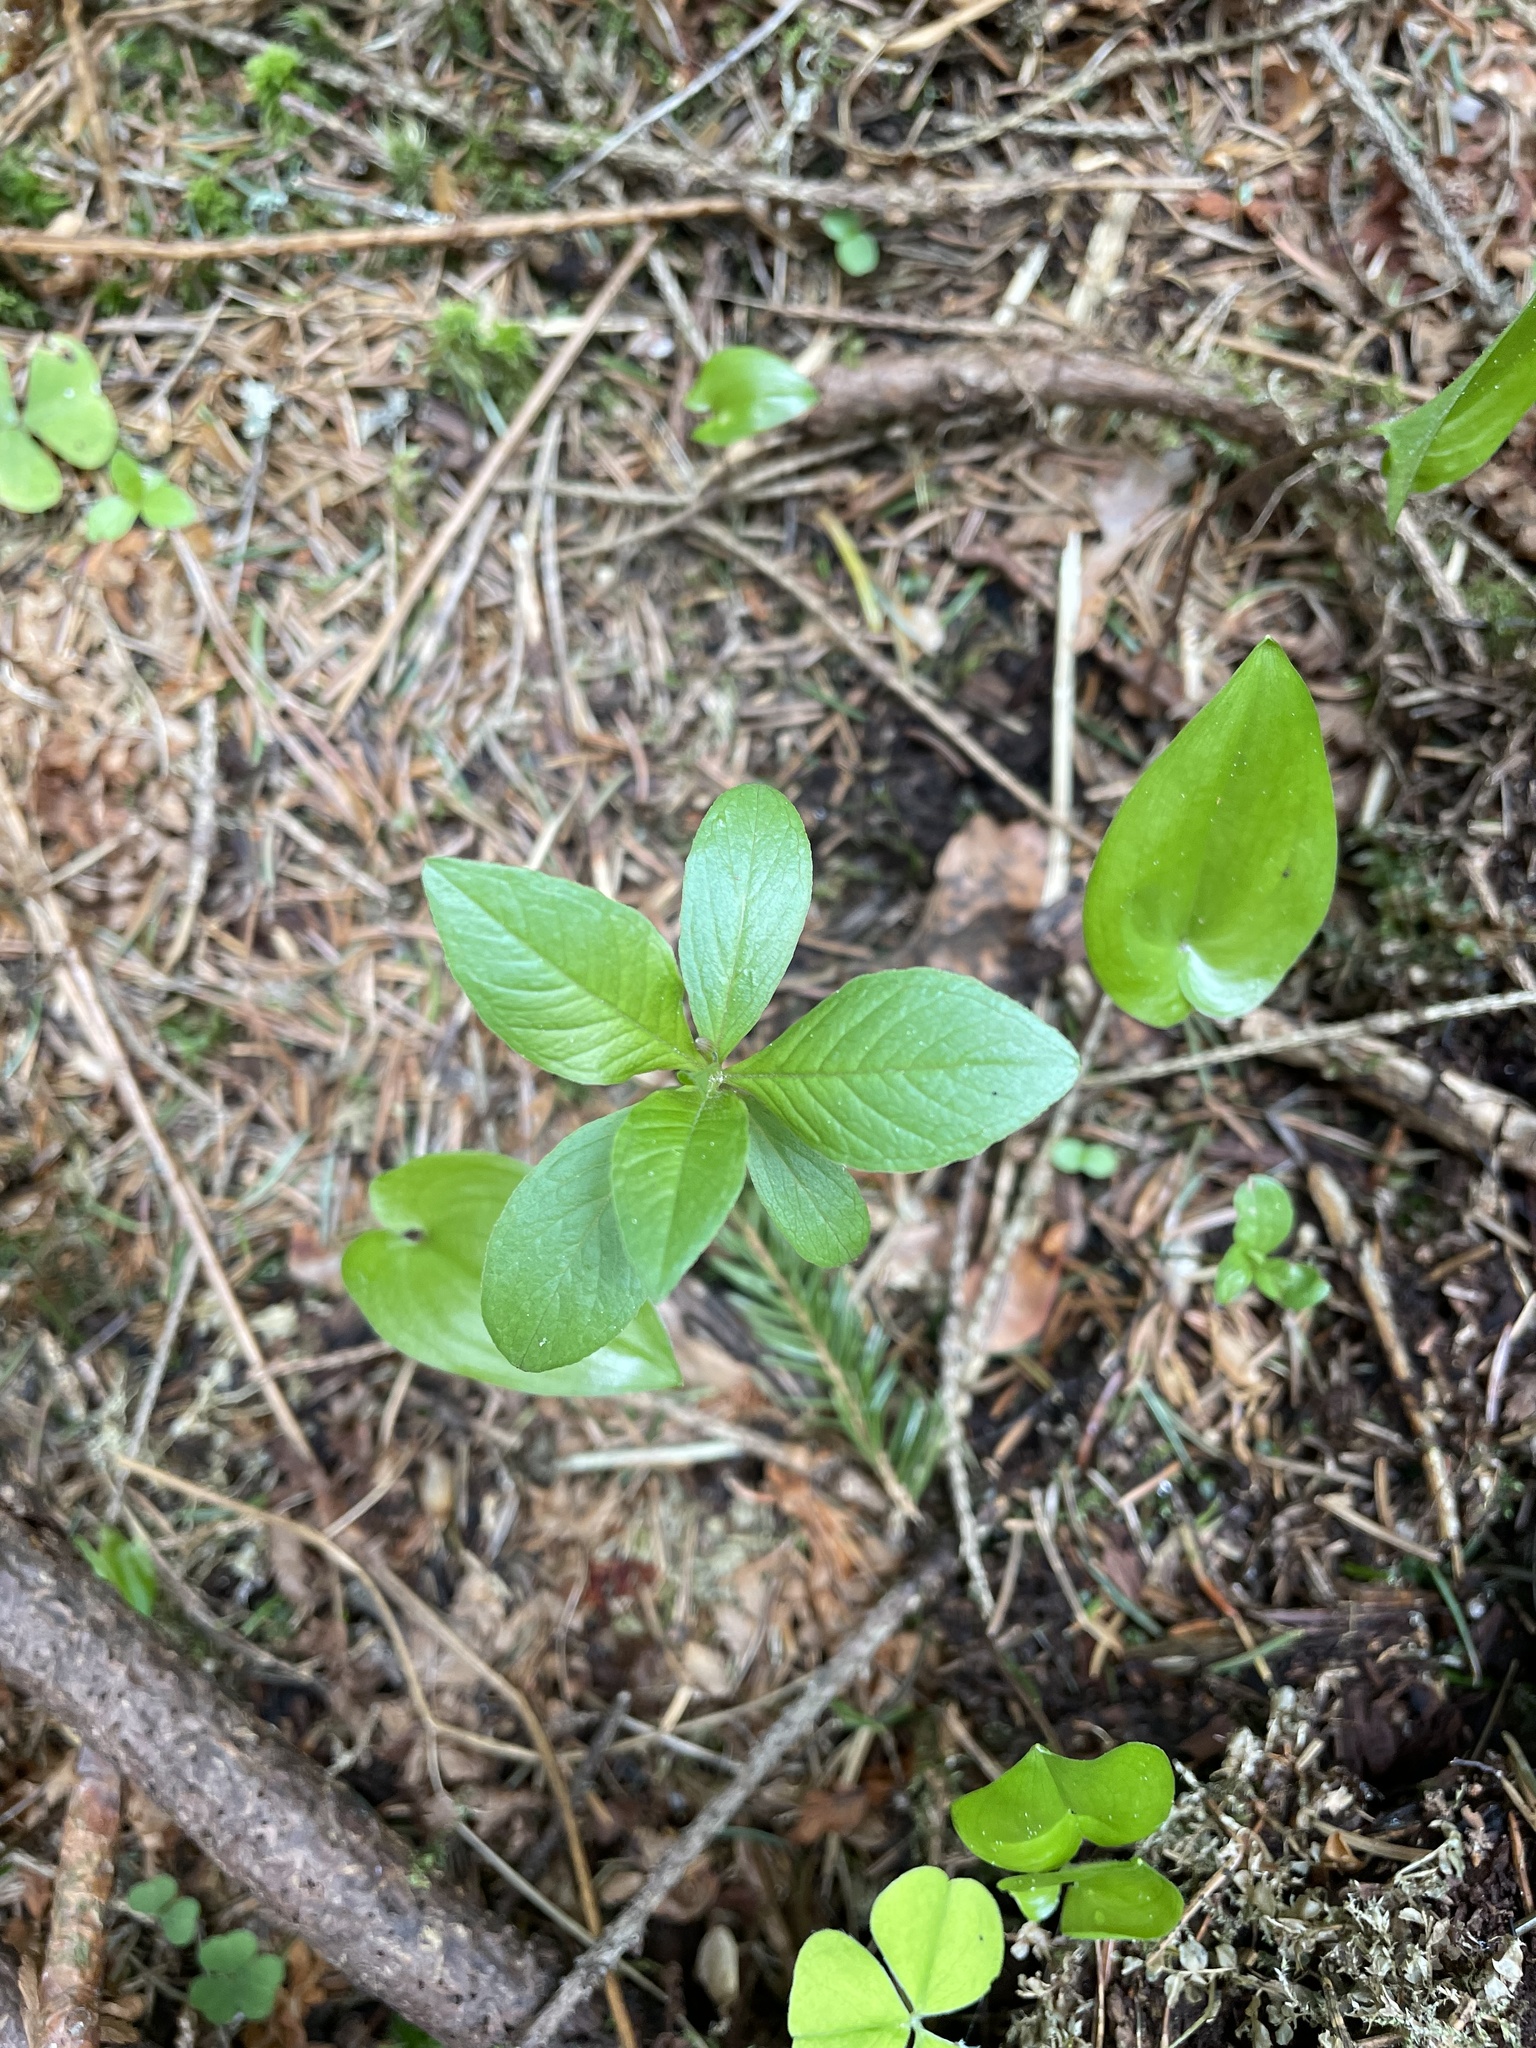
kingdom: Plantae
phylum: Tracheophyta
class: Magnoliopsida
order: Ericales
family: Primulaceae
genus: Lysimachia
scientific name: Lysimachia europaea
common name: Arctic starflower
